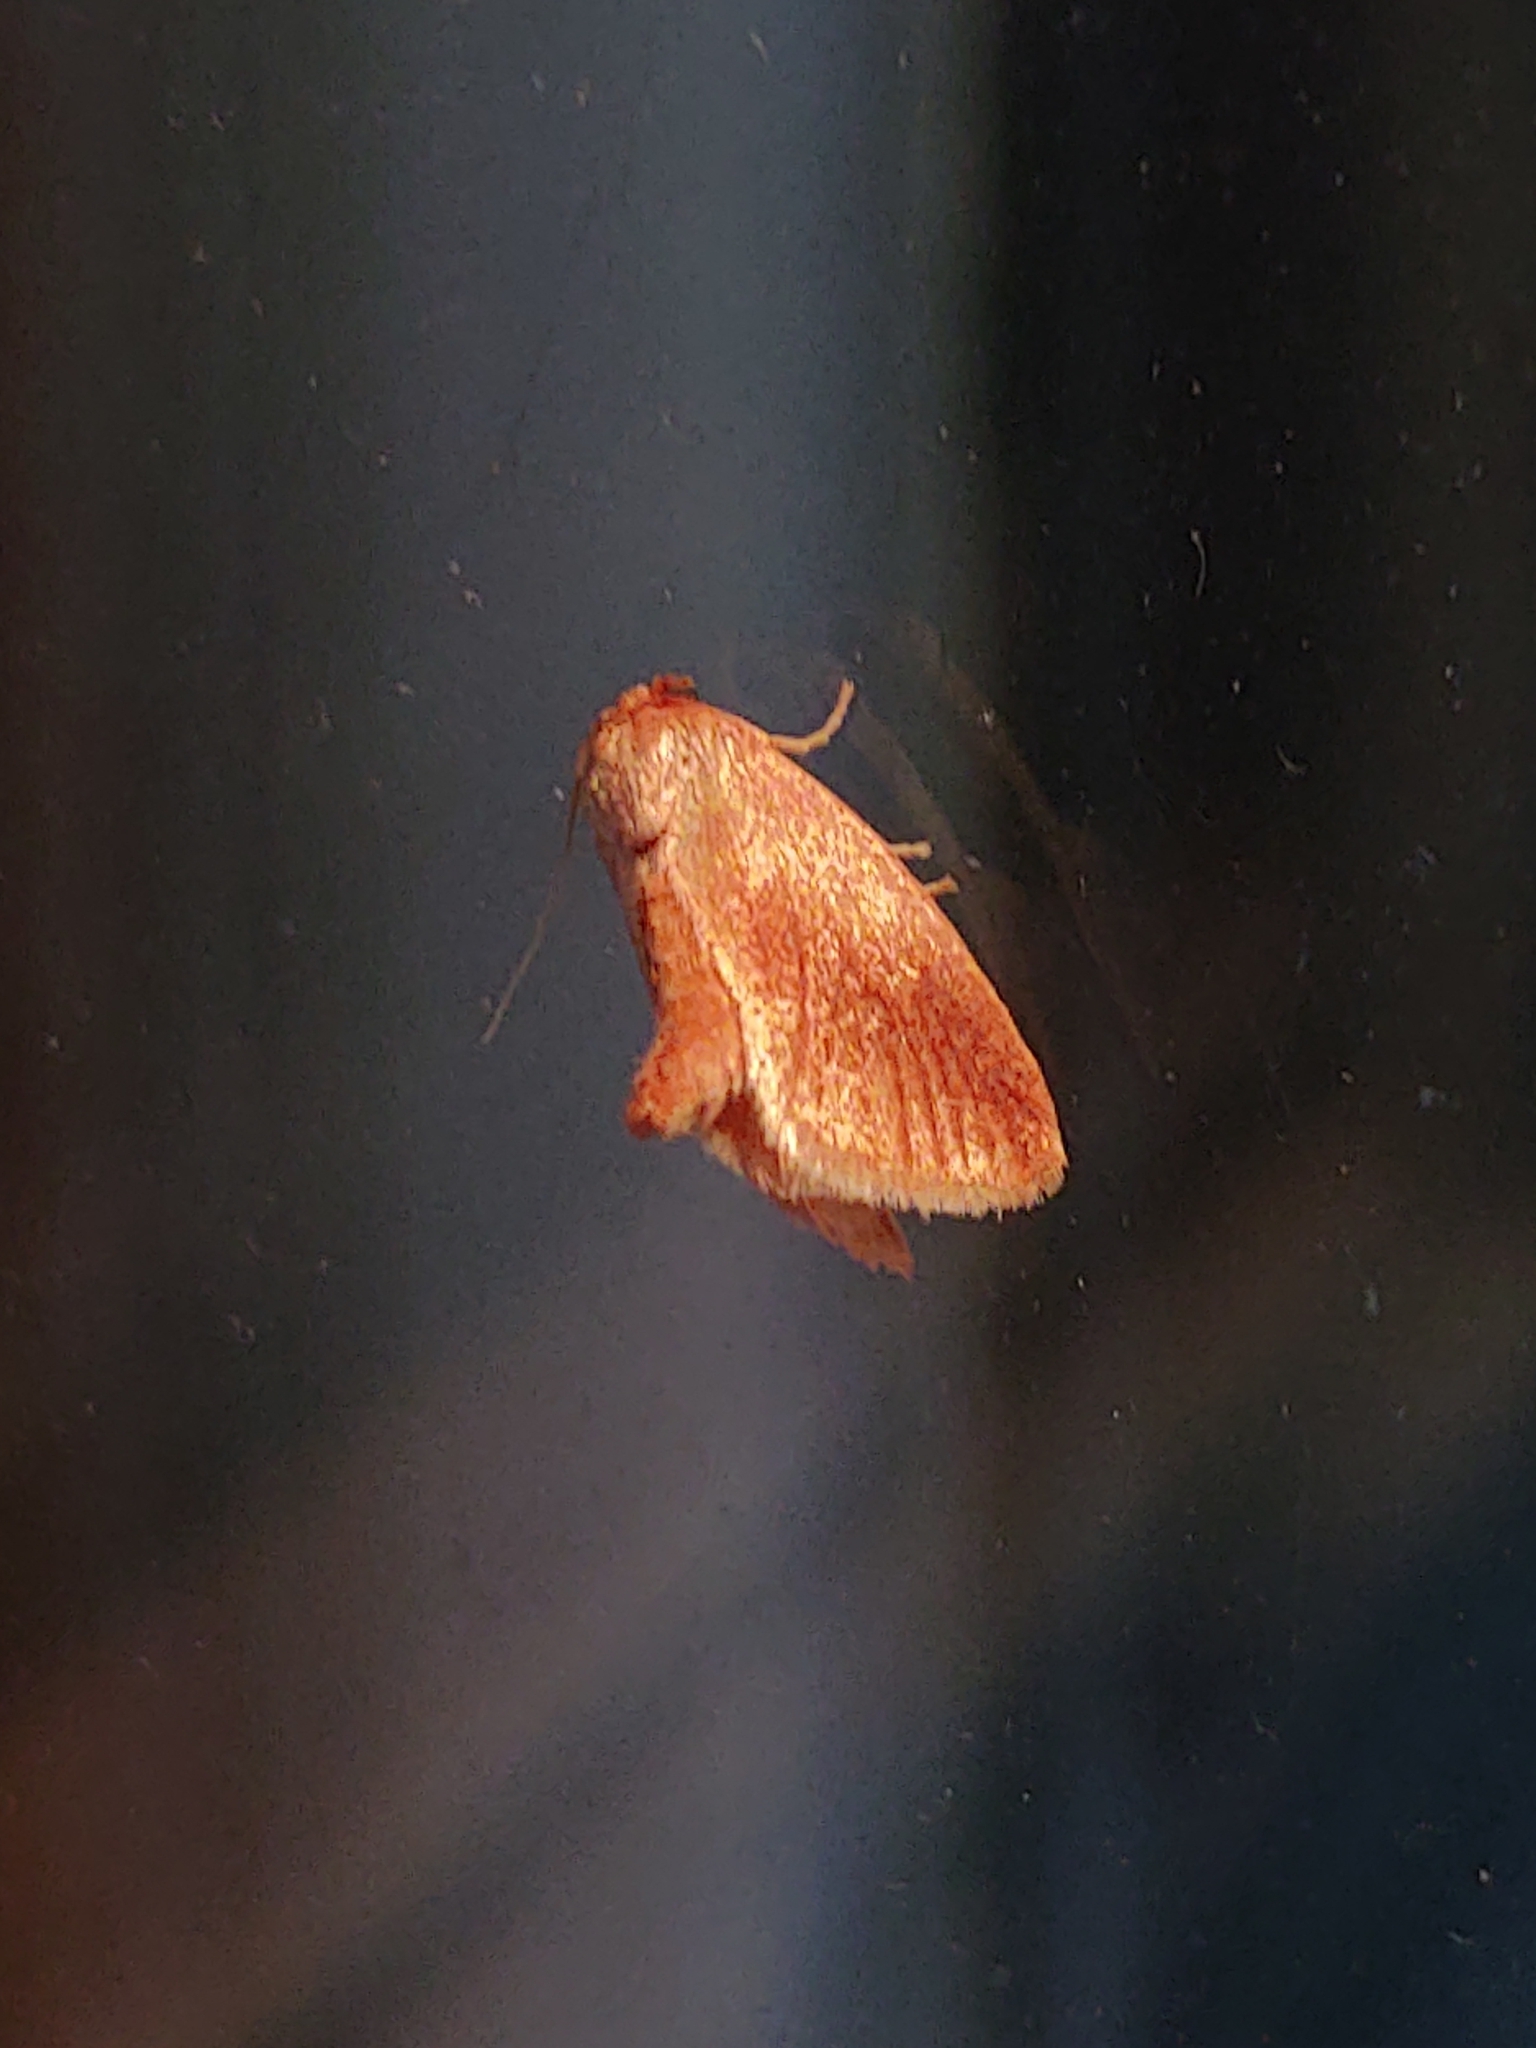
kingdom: Animalia
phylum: Arthropoda
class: Insecta
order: Lepidoptera
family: Limacodidae
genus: Tortricidia
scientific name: Tortricidia testacea
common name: Early button slug moth
